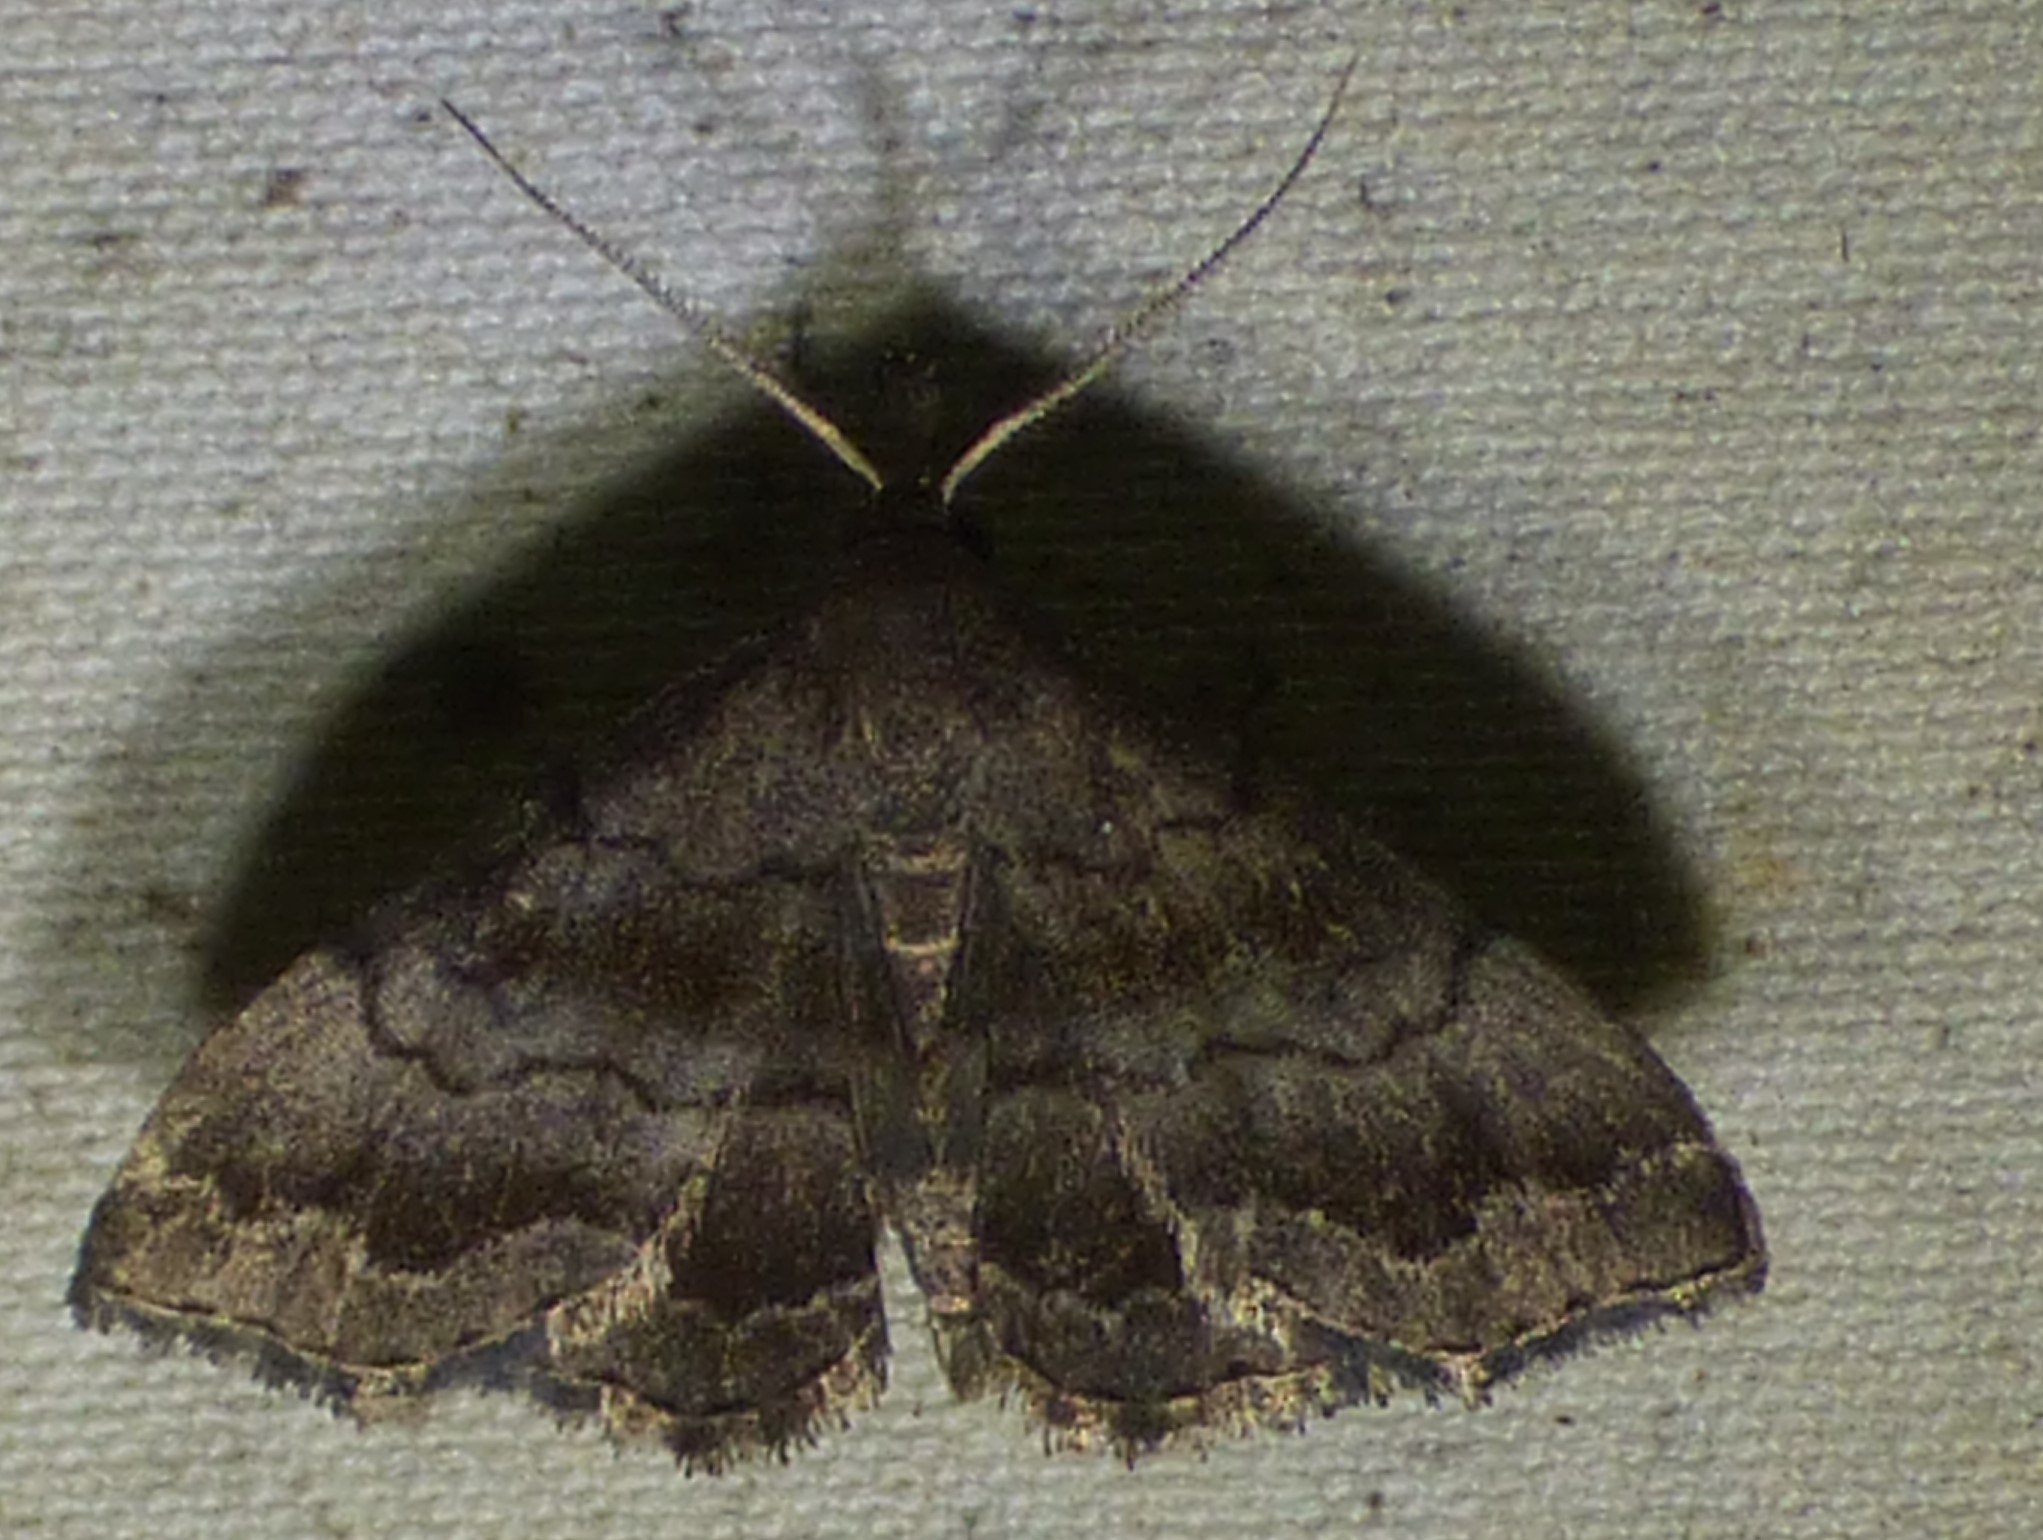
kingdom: Animalia
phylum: Arthropoda
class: Insecta
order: Lepidoptera
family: Erebidae
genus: Phalaenostola
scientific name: Phalaenostola larentioides
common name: Black-banded owlet
